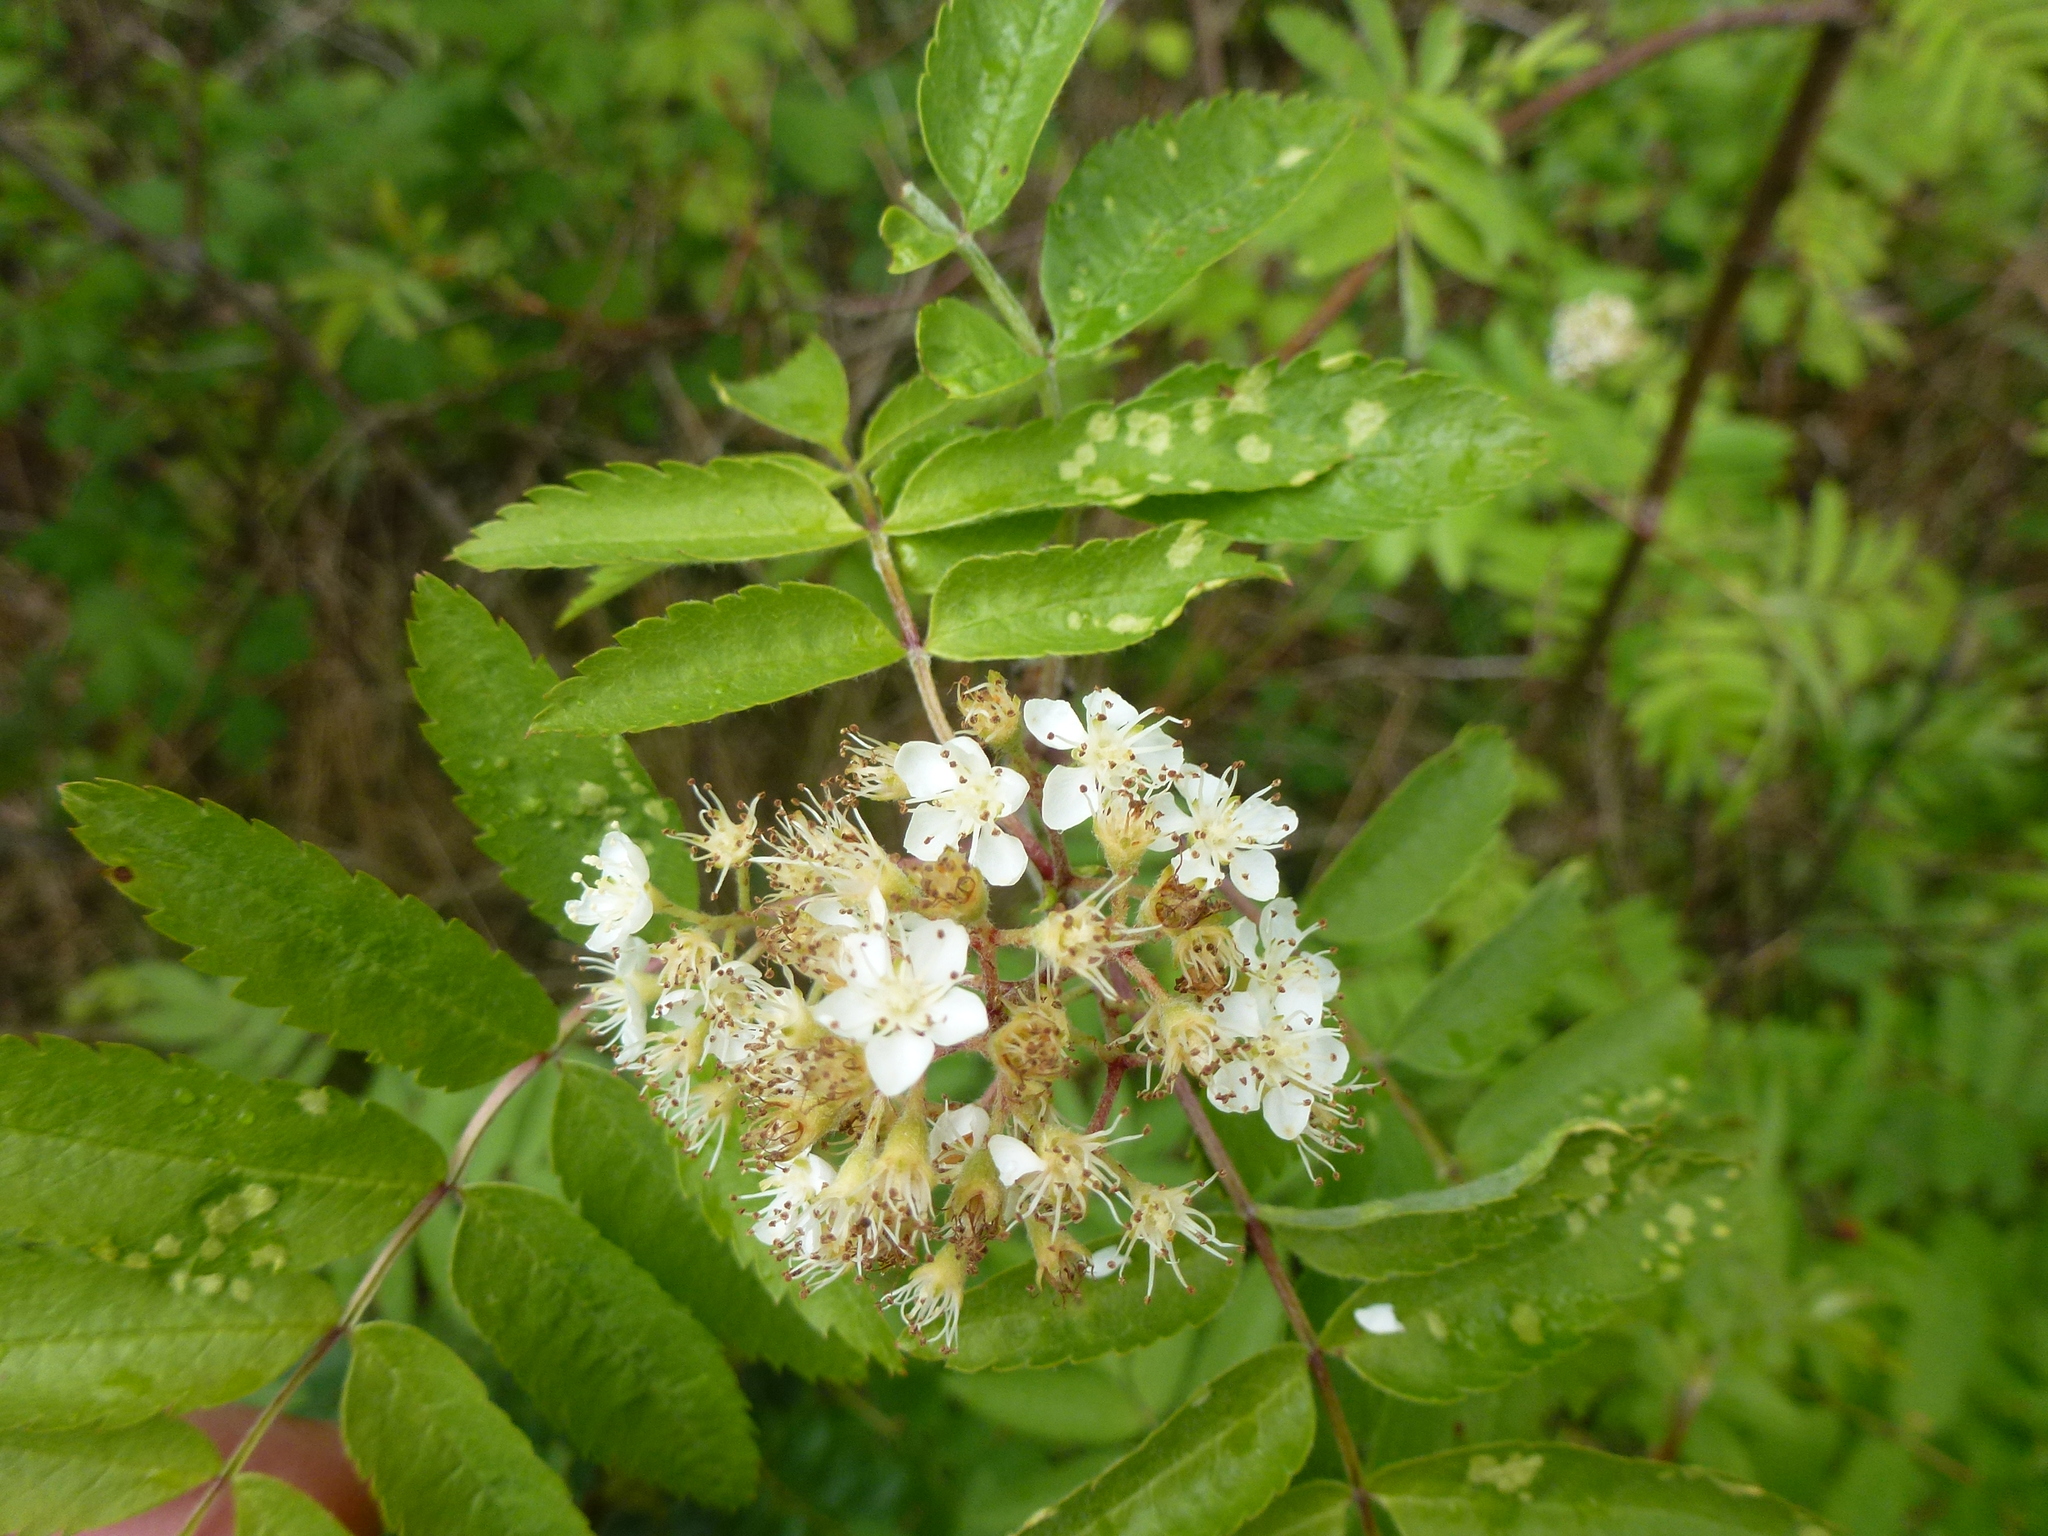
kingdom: Plantae
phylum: Tracheophyta
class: Magnoliopsida
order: Rosales
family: Rosaceae
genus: Sorbus
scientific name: Sorbus aucuparia
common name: Rowan
